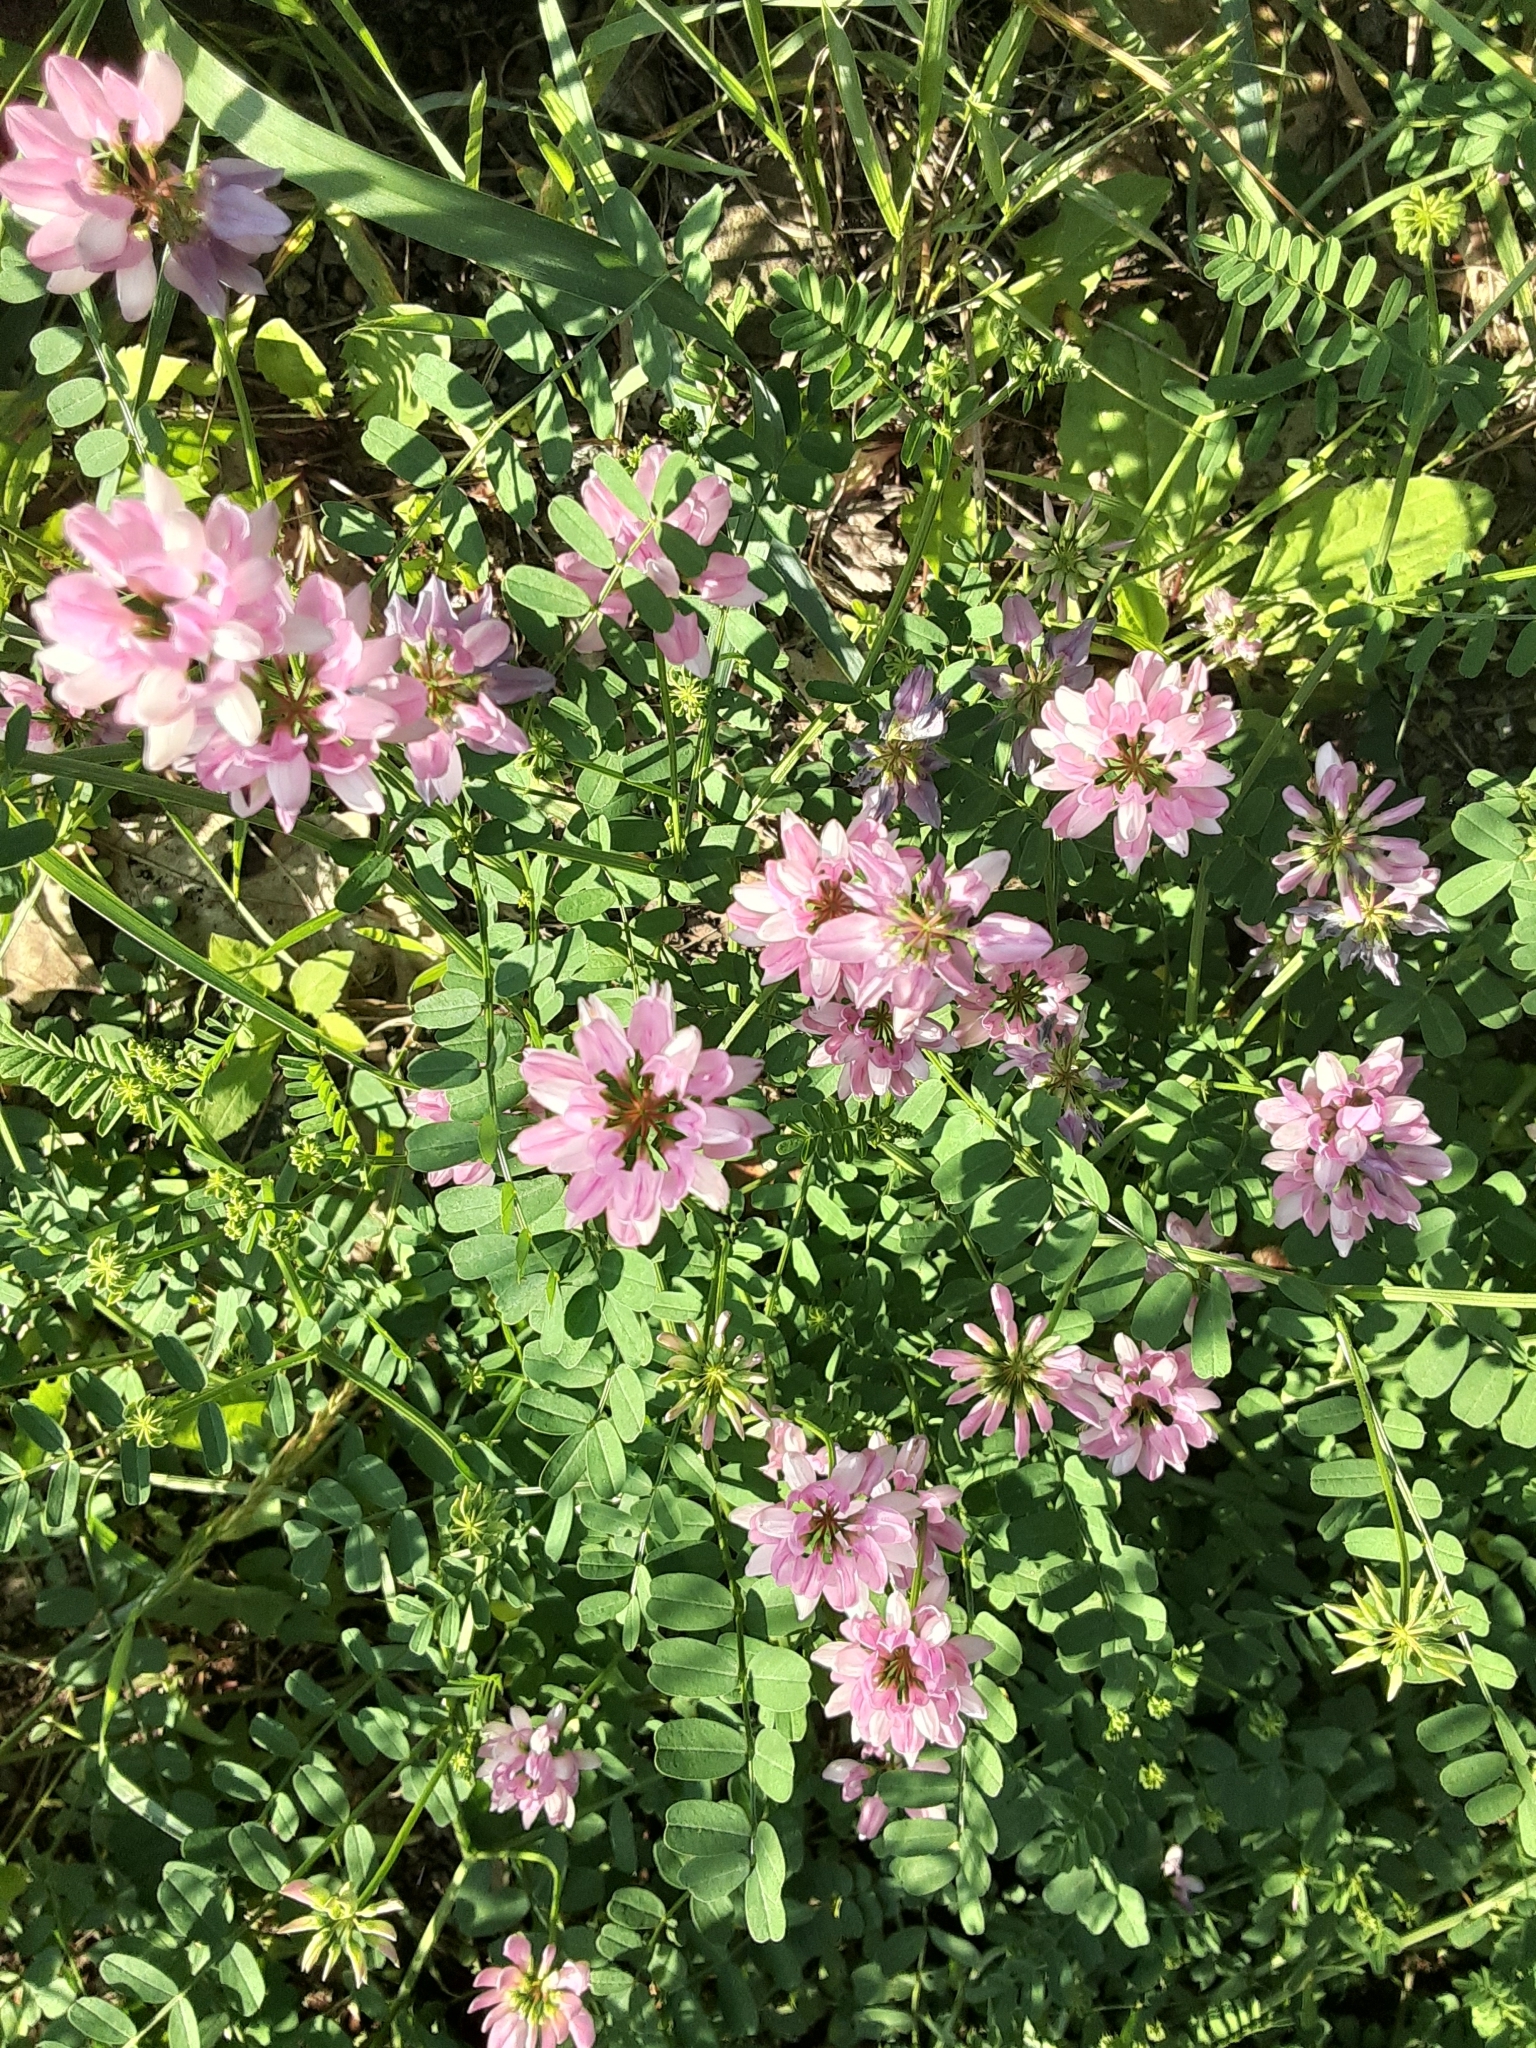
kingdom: Plantae
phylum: Tracheophyta
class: Magnoliopsida
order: Fabales
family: Fabaceae
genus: Coronilla
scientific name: Coronilla varia
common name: Crownvetch
